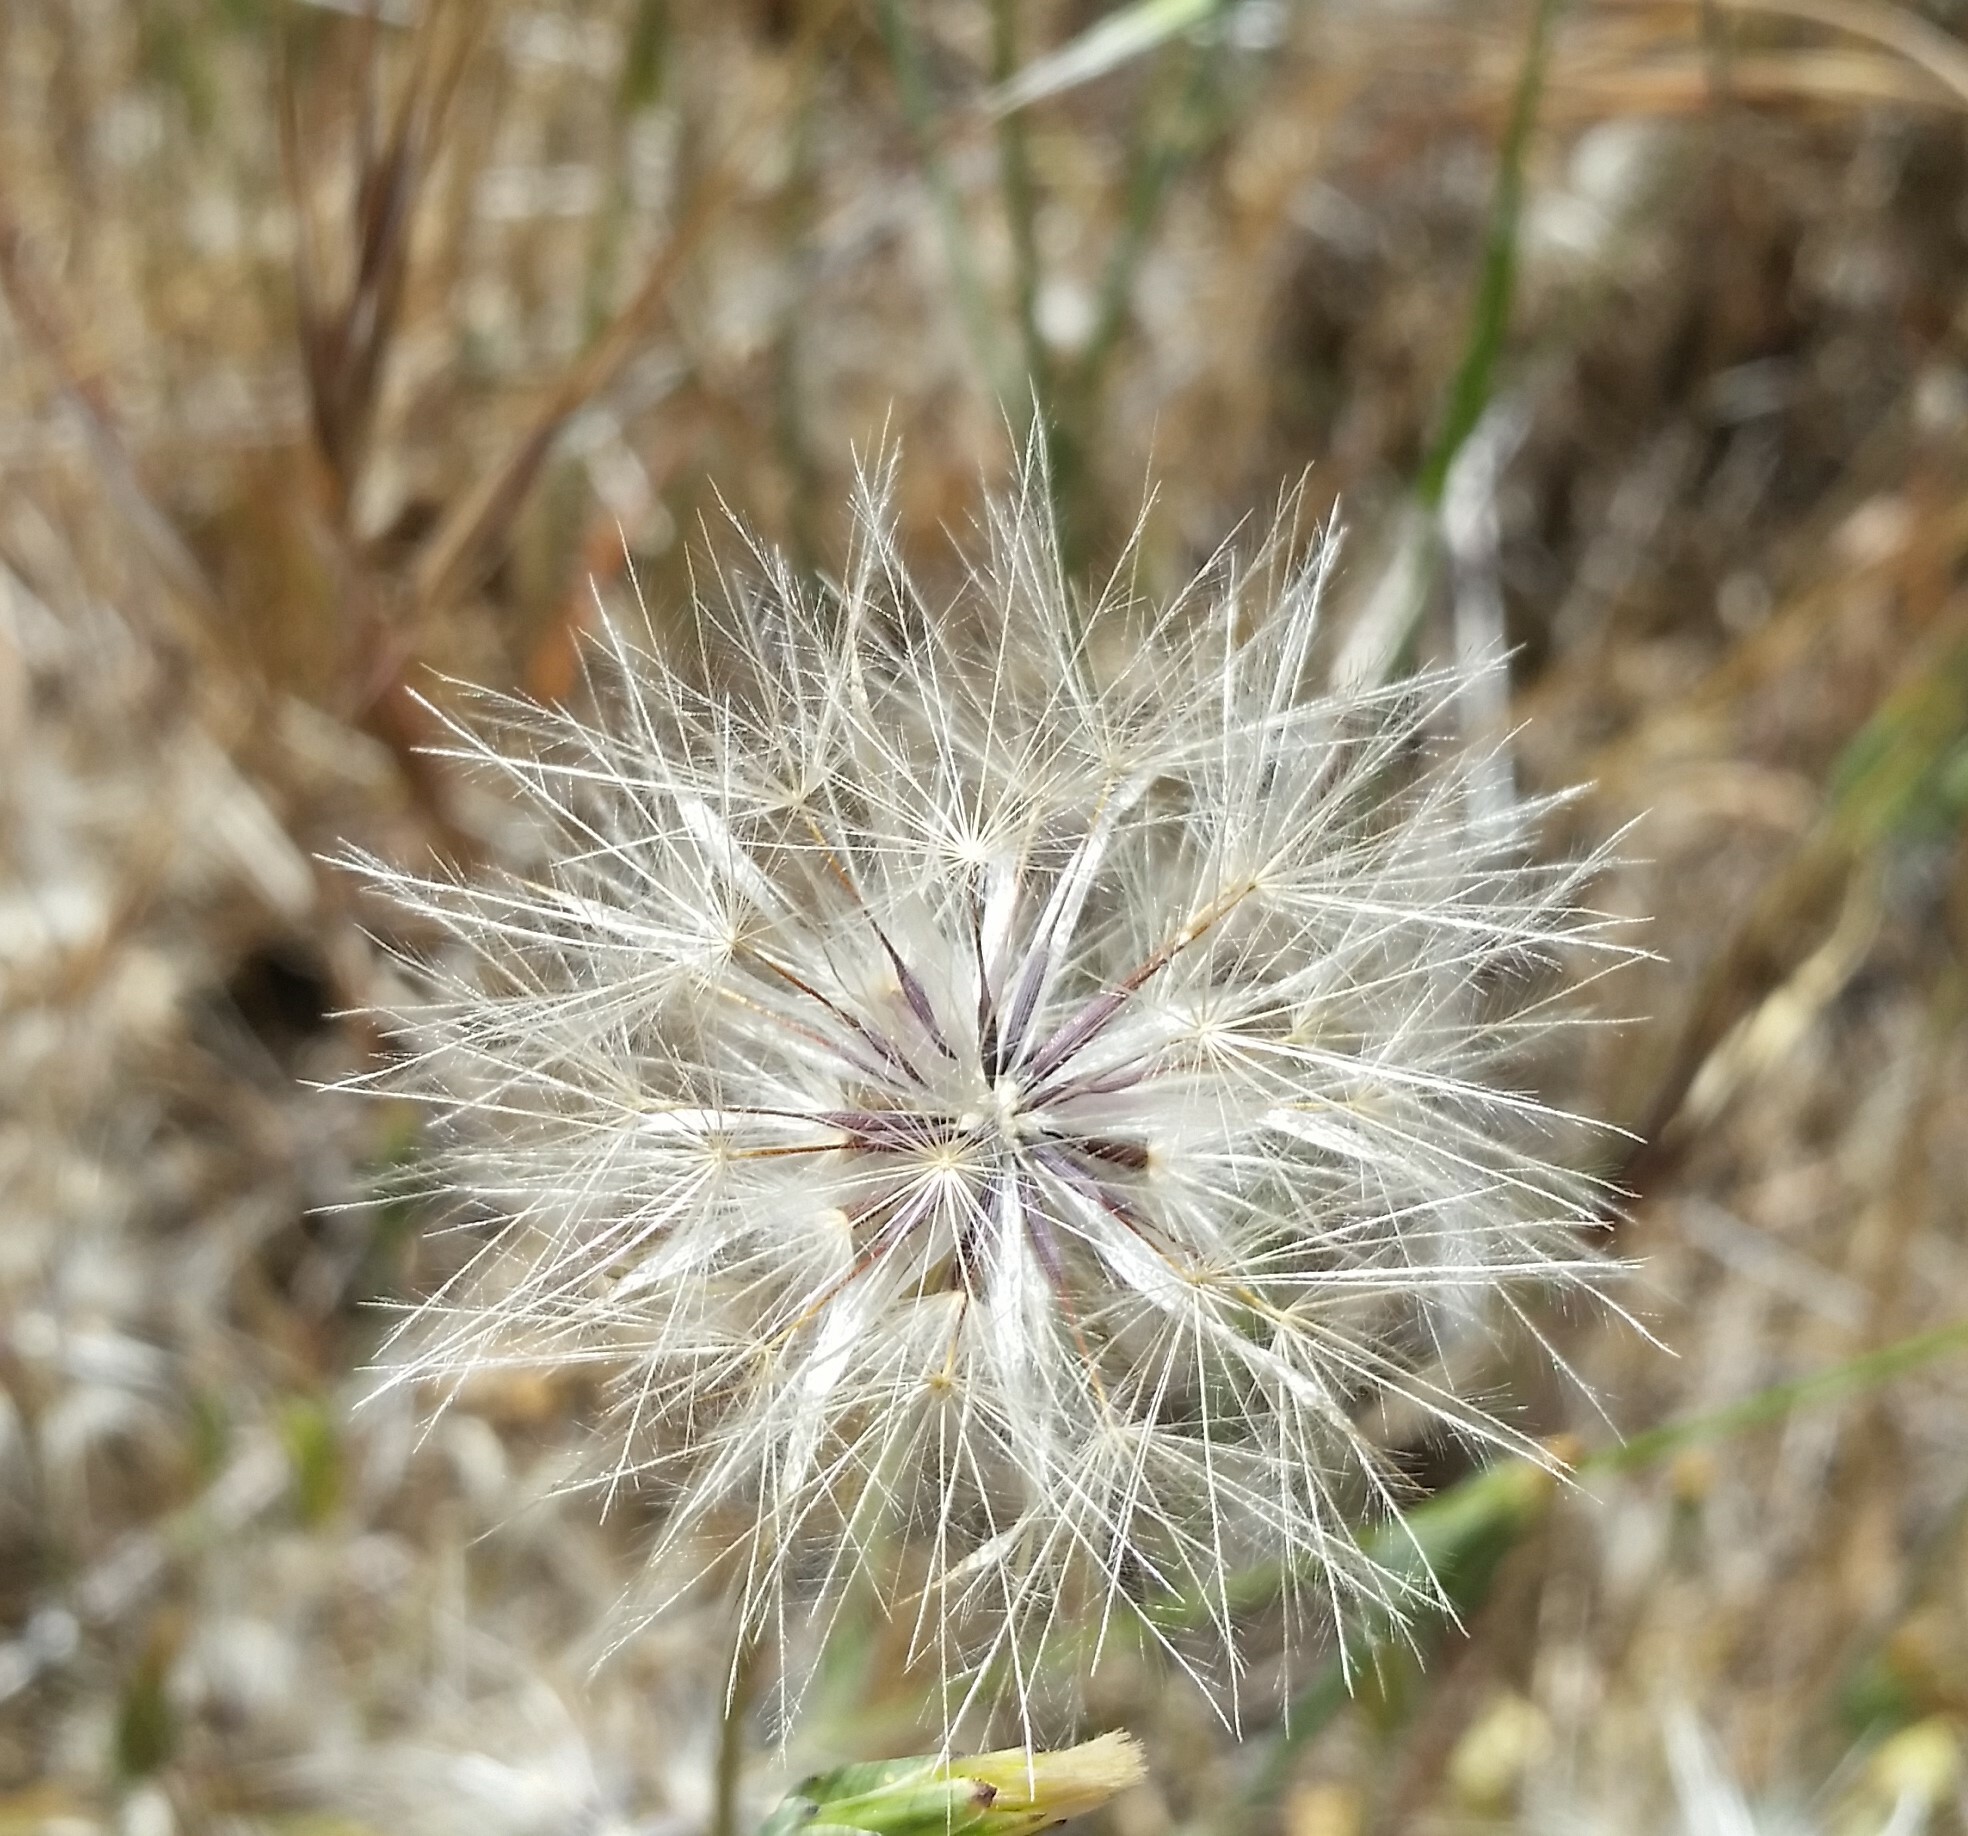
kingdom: Plantae
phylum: Tracheophyta
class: Magnoliopsida
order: Asterales
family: Asteraceae
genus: Hypochaeris
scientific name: Hypochaeris glabra
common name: Smooth catsear
